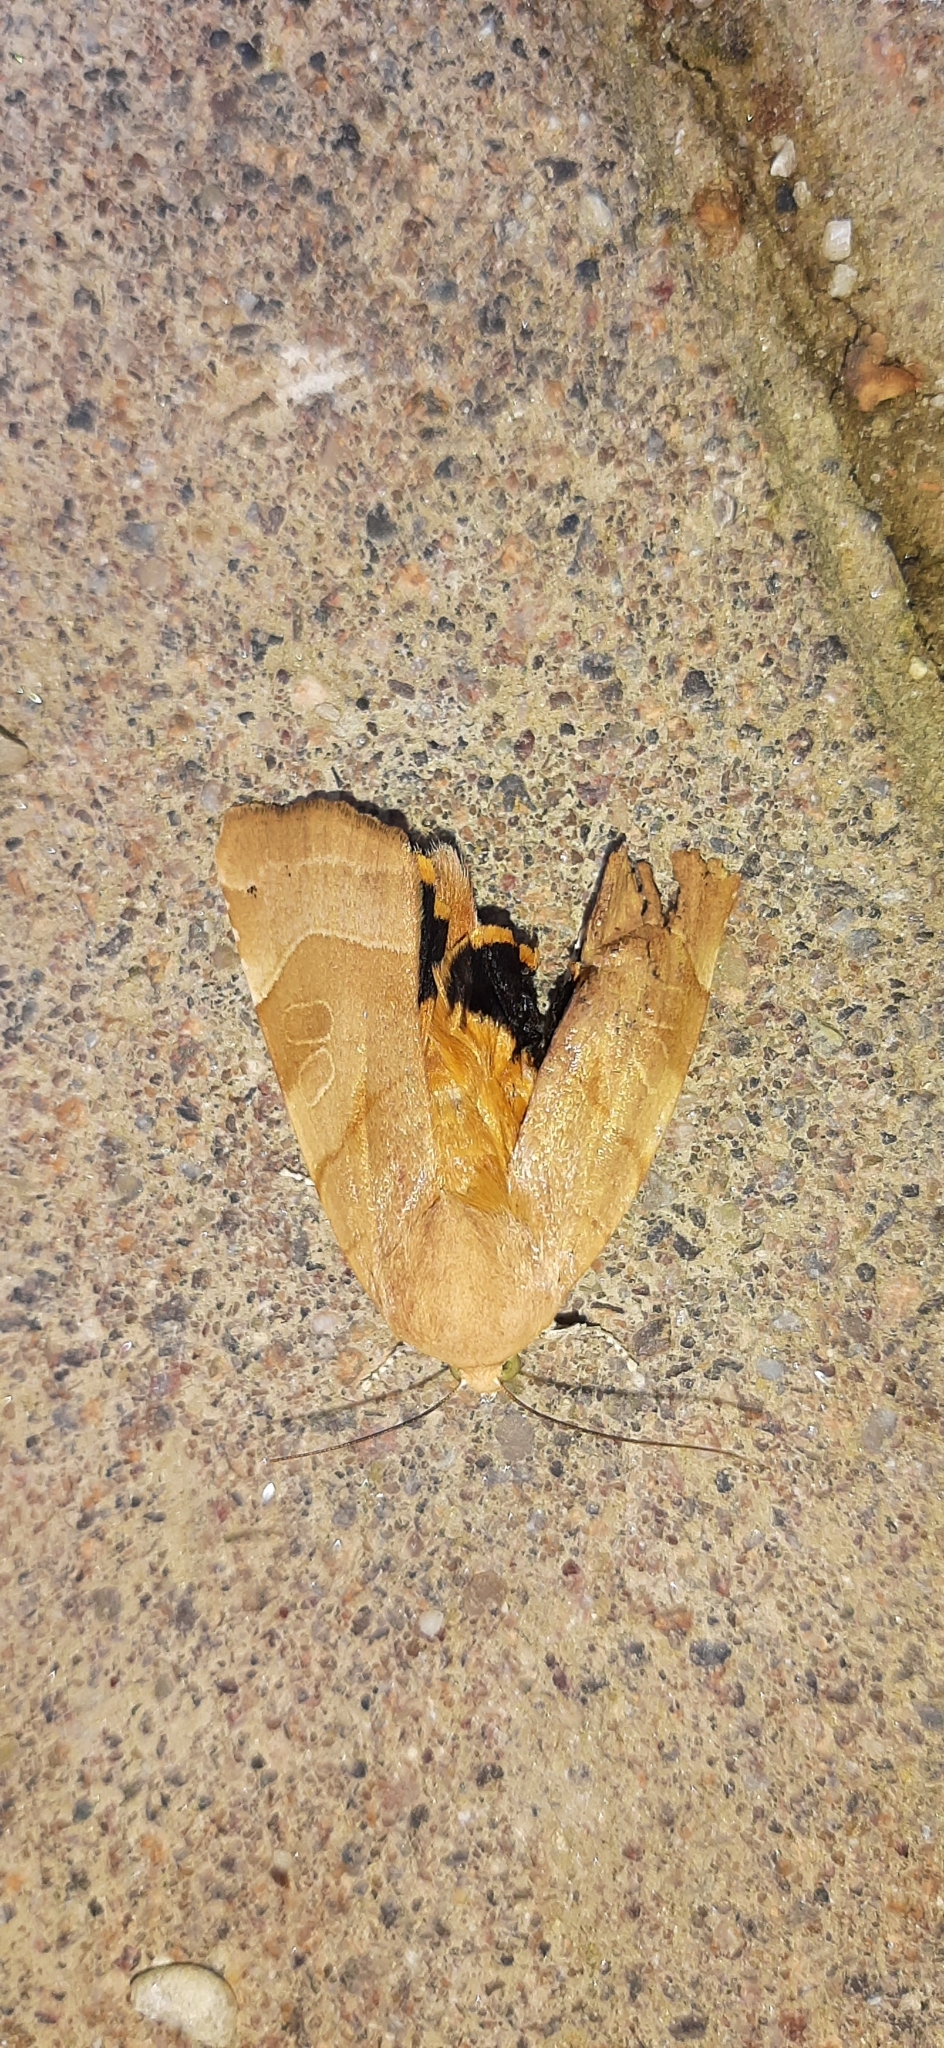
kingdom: Animalia
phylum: Arthropoda
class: Insecta
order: Lepidoptera
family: Noctuidae
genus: Noctua
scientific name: Noctua fimbriata
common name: Broad-bordered yellow underwing
